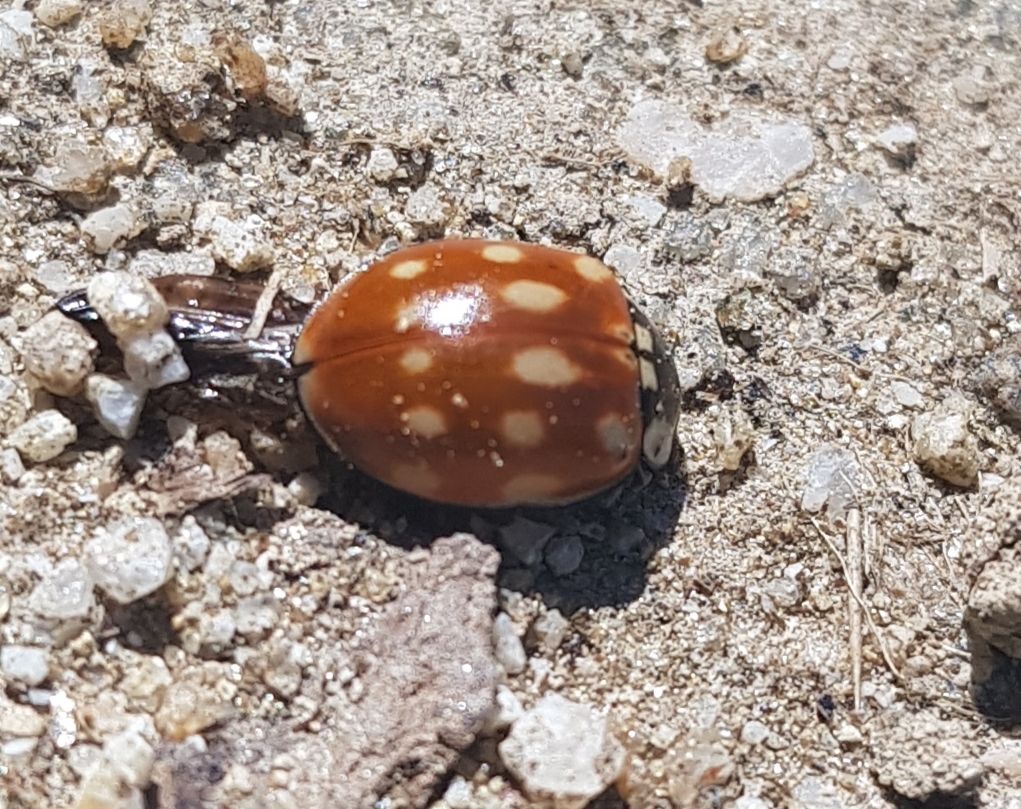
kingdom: Animalia
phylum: Arthropoda
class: Insecta
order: Coleoptera
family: Coccinellidae
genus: Anatis
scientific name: Anatis ocellata
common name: Eyed ladybird
